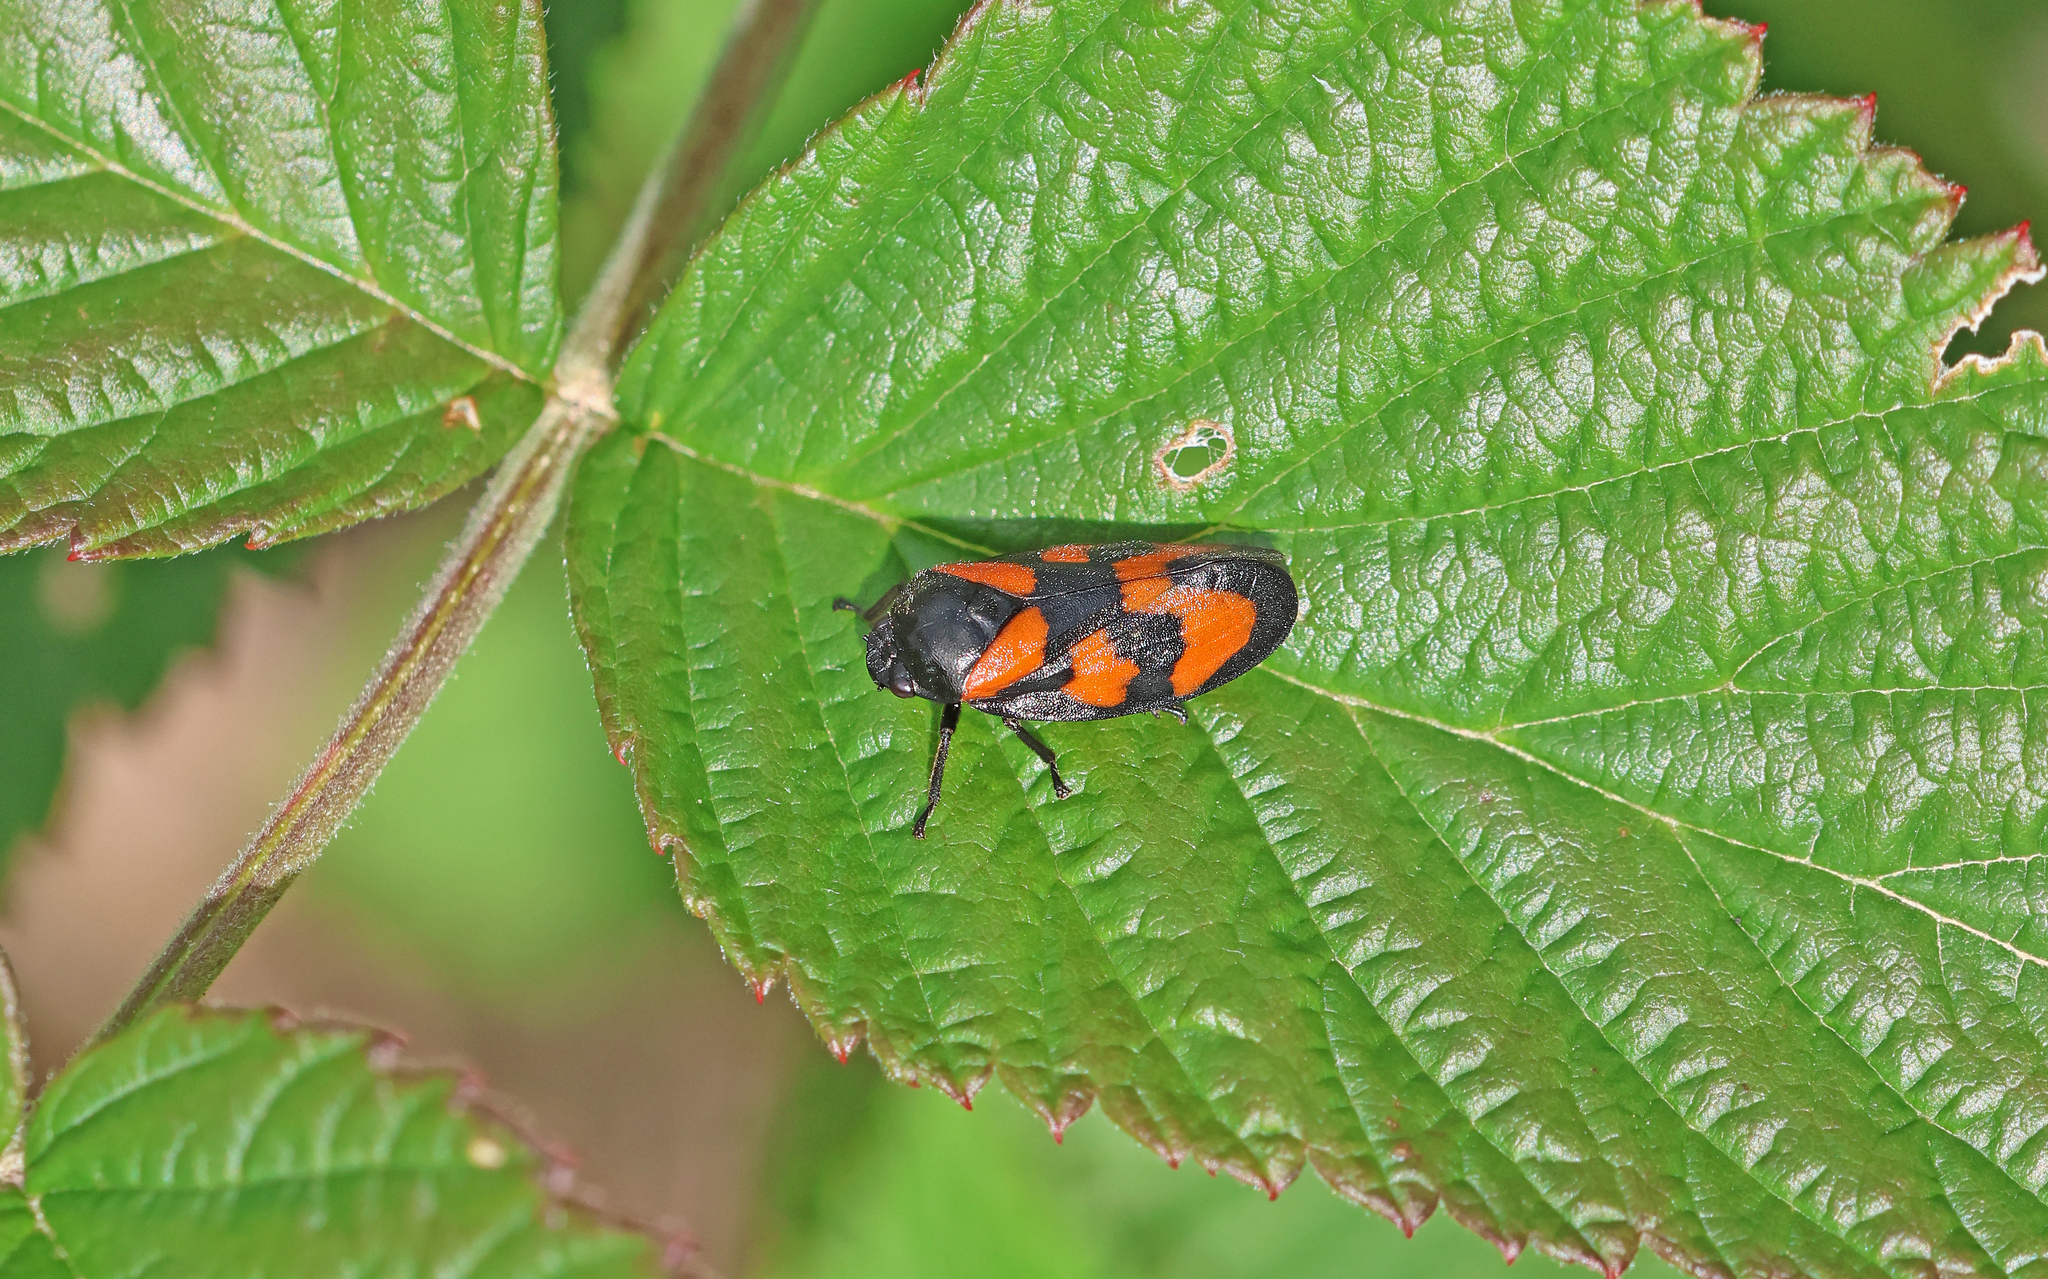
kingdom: Animalia
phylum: Arthropoda
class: Insecta
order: Hemiptera
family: Cercopidae
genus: Cercopis
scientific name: Cercopis vulnerata
